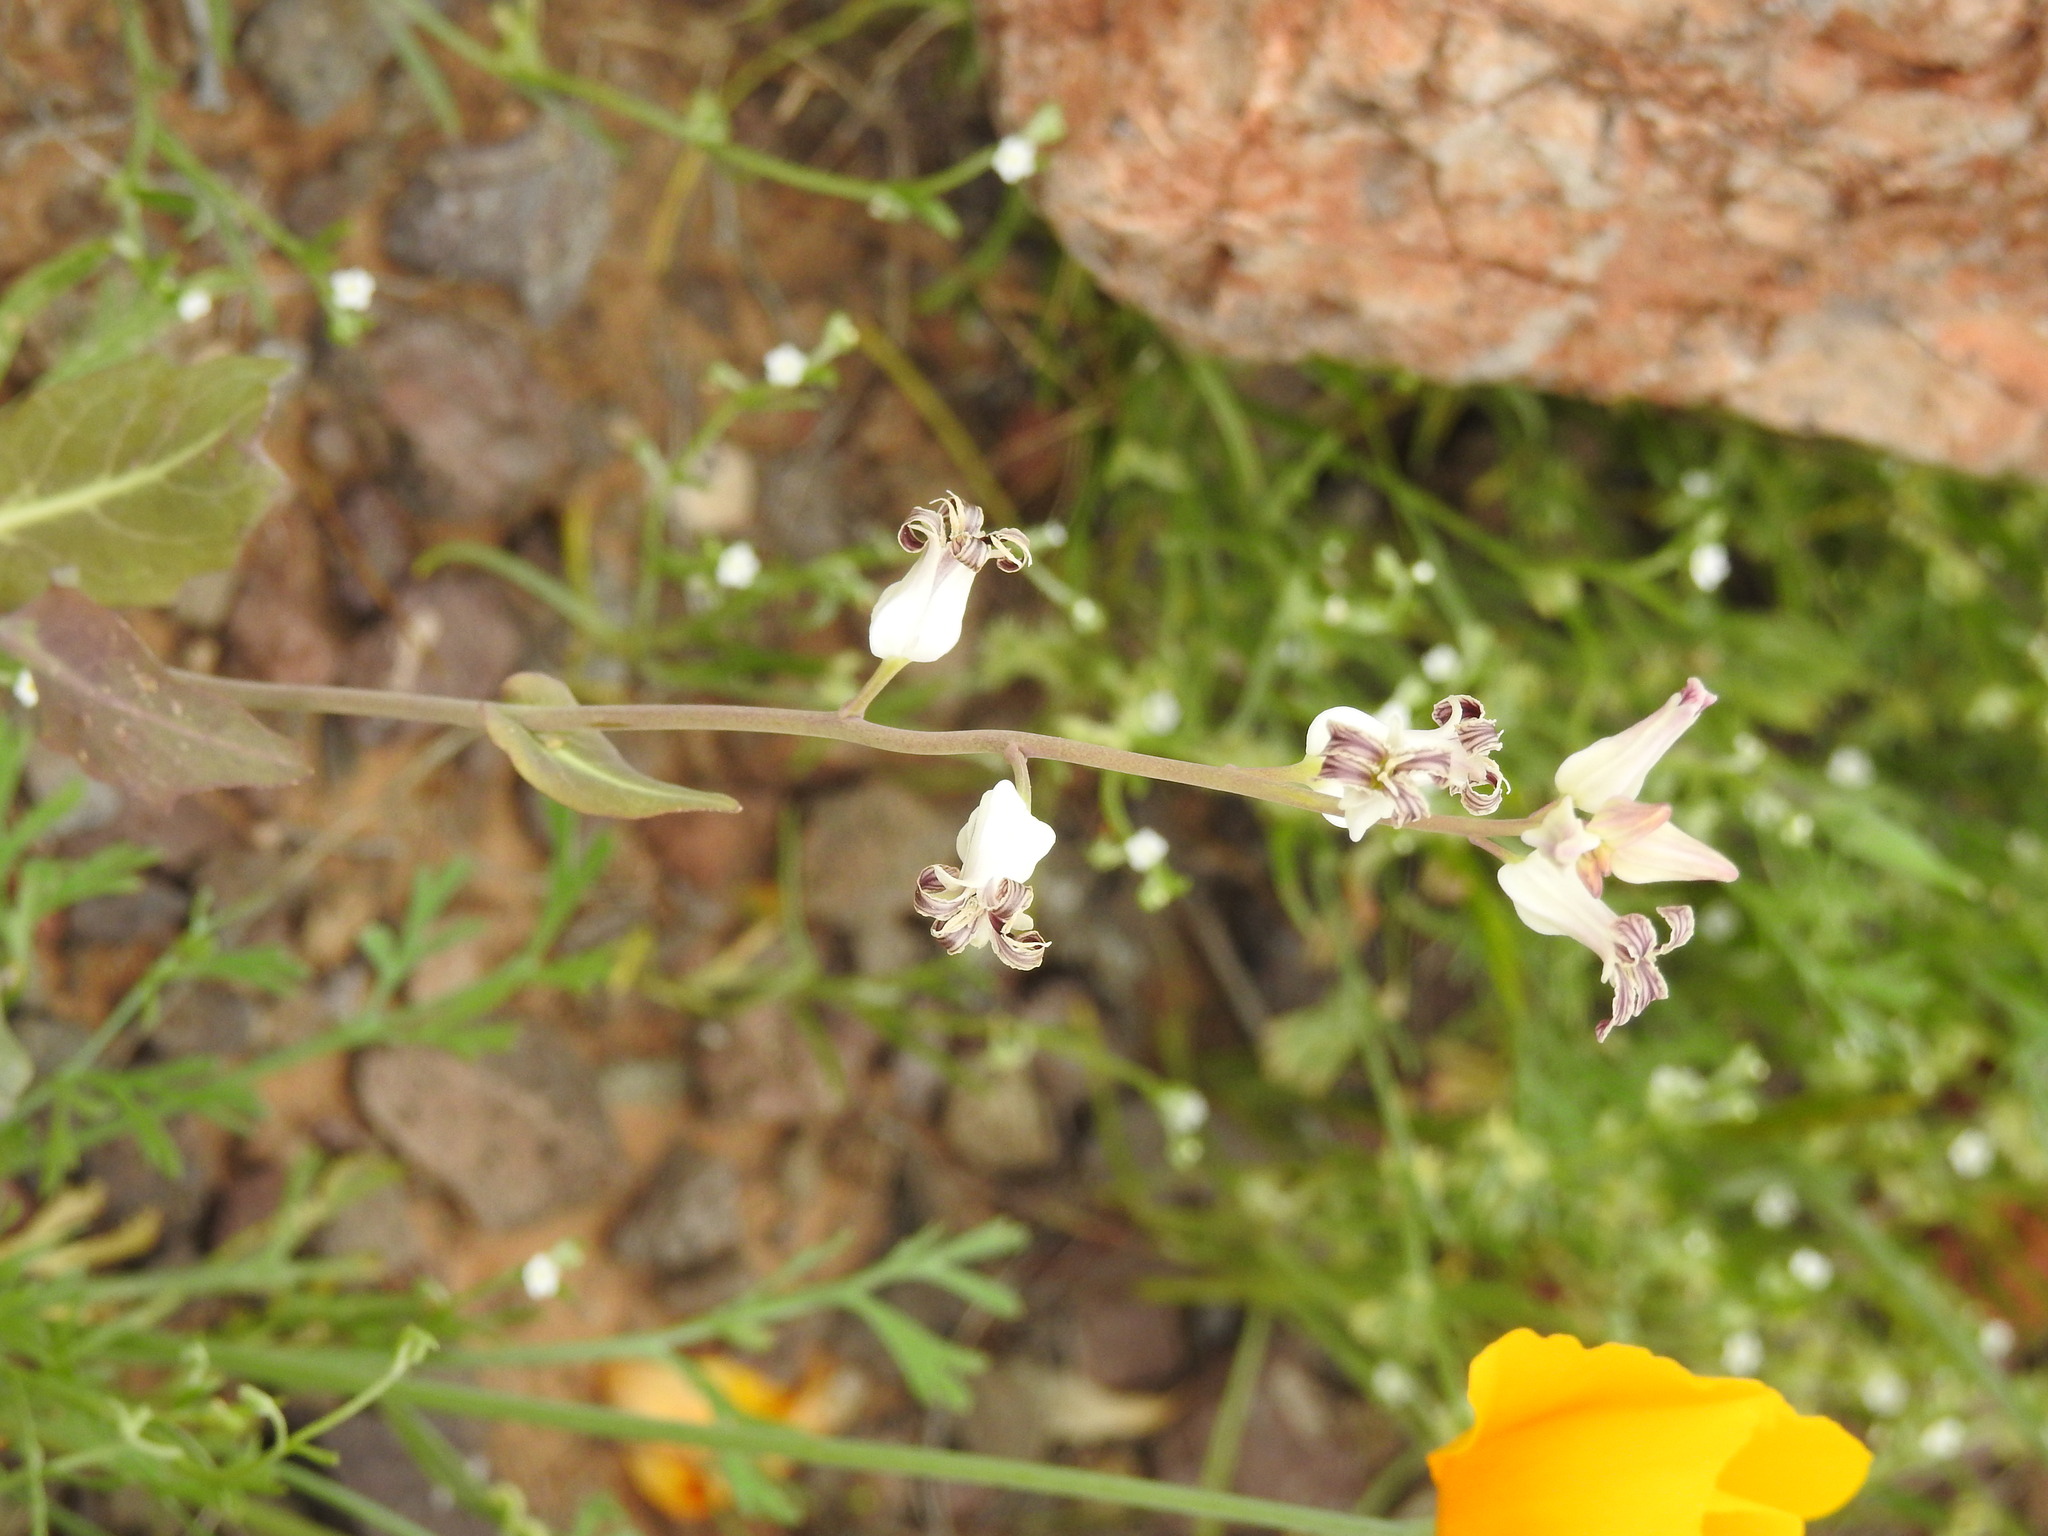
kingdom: Plantae
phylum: Tracheophyta
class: Magnoliopsida
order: Brassicales
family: Brassicaceae
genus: Streptanthus
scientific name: Streptanthus carinatus
